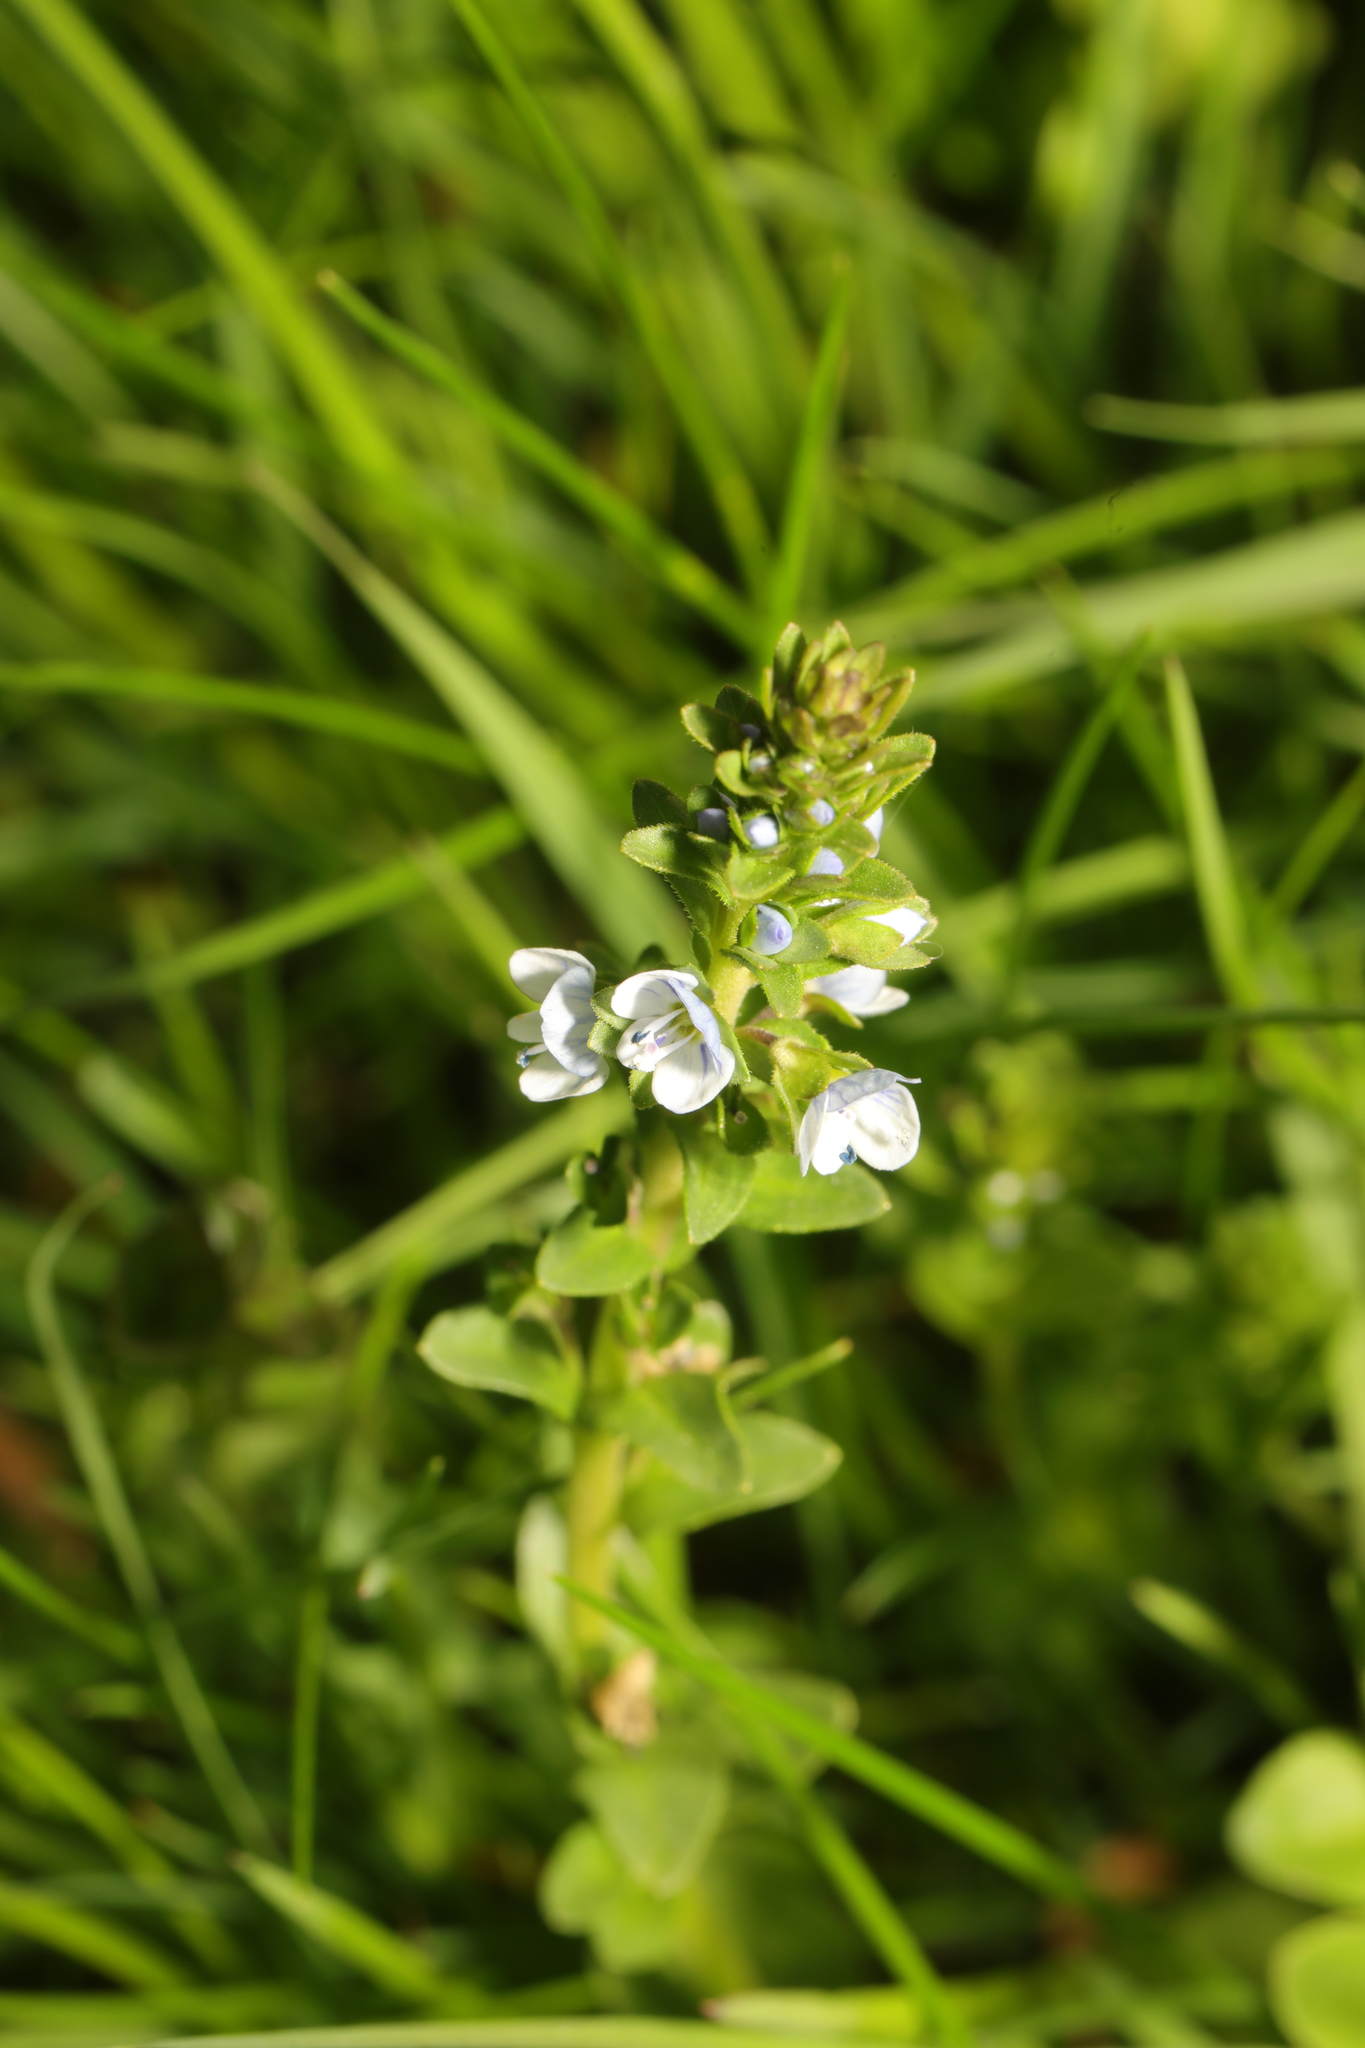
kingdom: Plantae
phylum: Tracheophyta
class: Magnoliopsida
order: Lamiales
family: Plantaginaceae
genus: Veronica
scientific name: Veronica serpyllifolia
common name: Thyme-leaved speedwell
